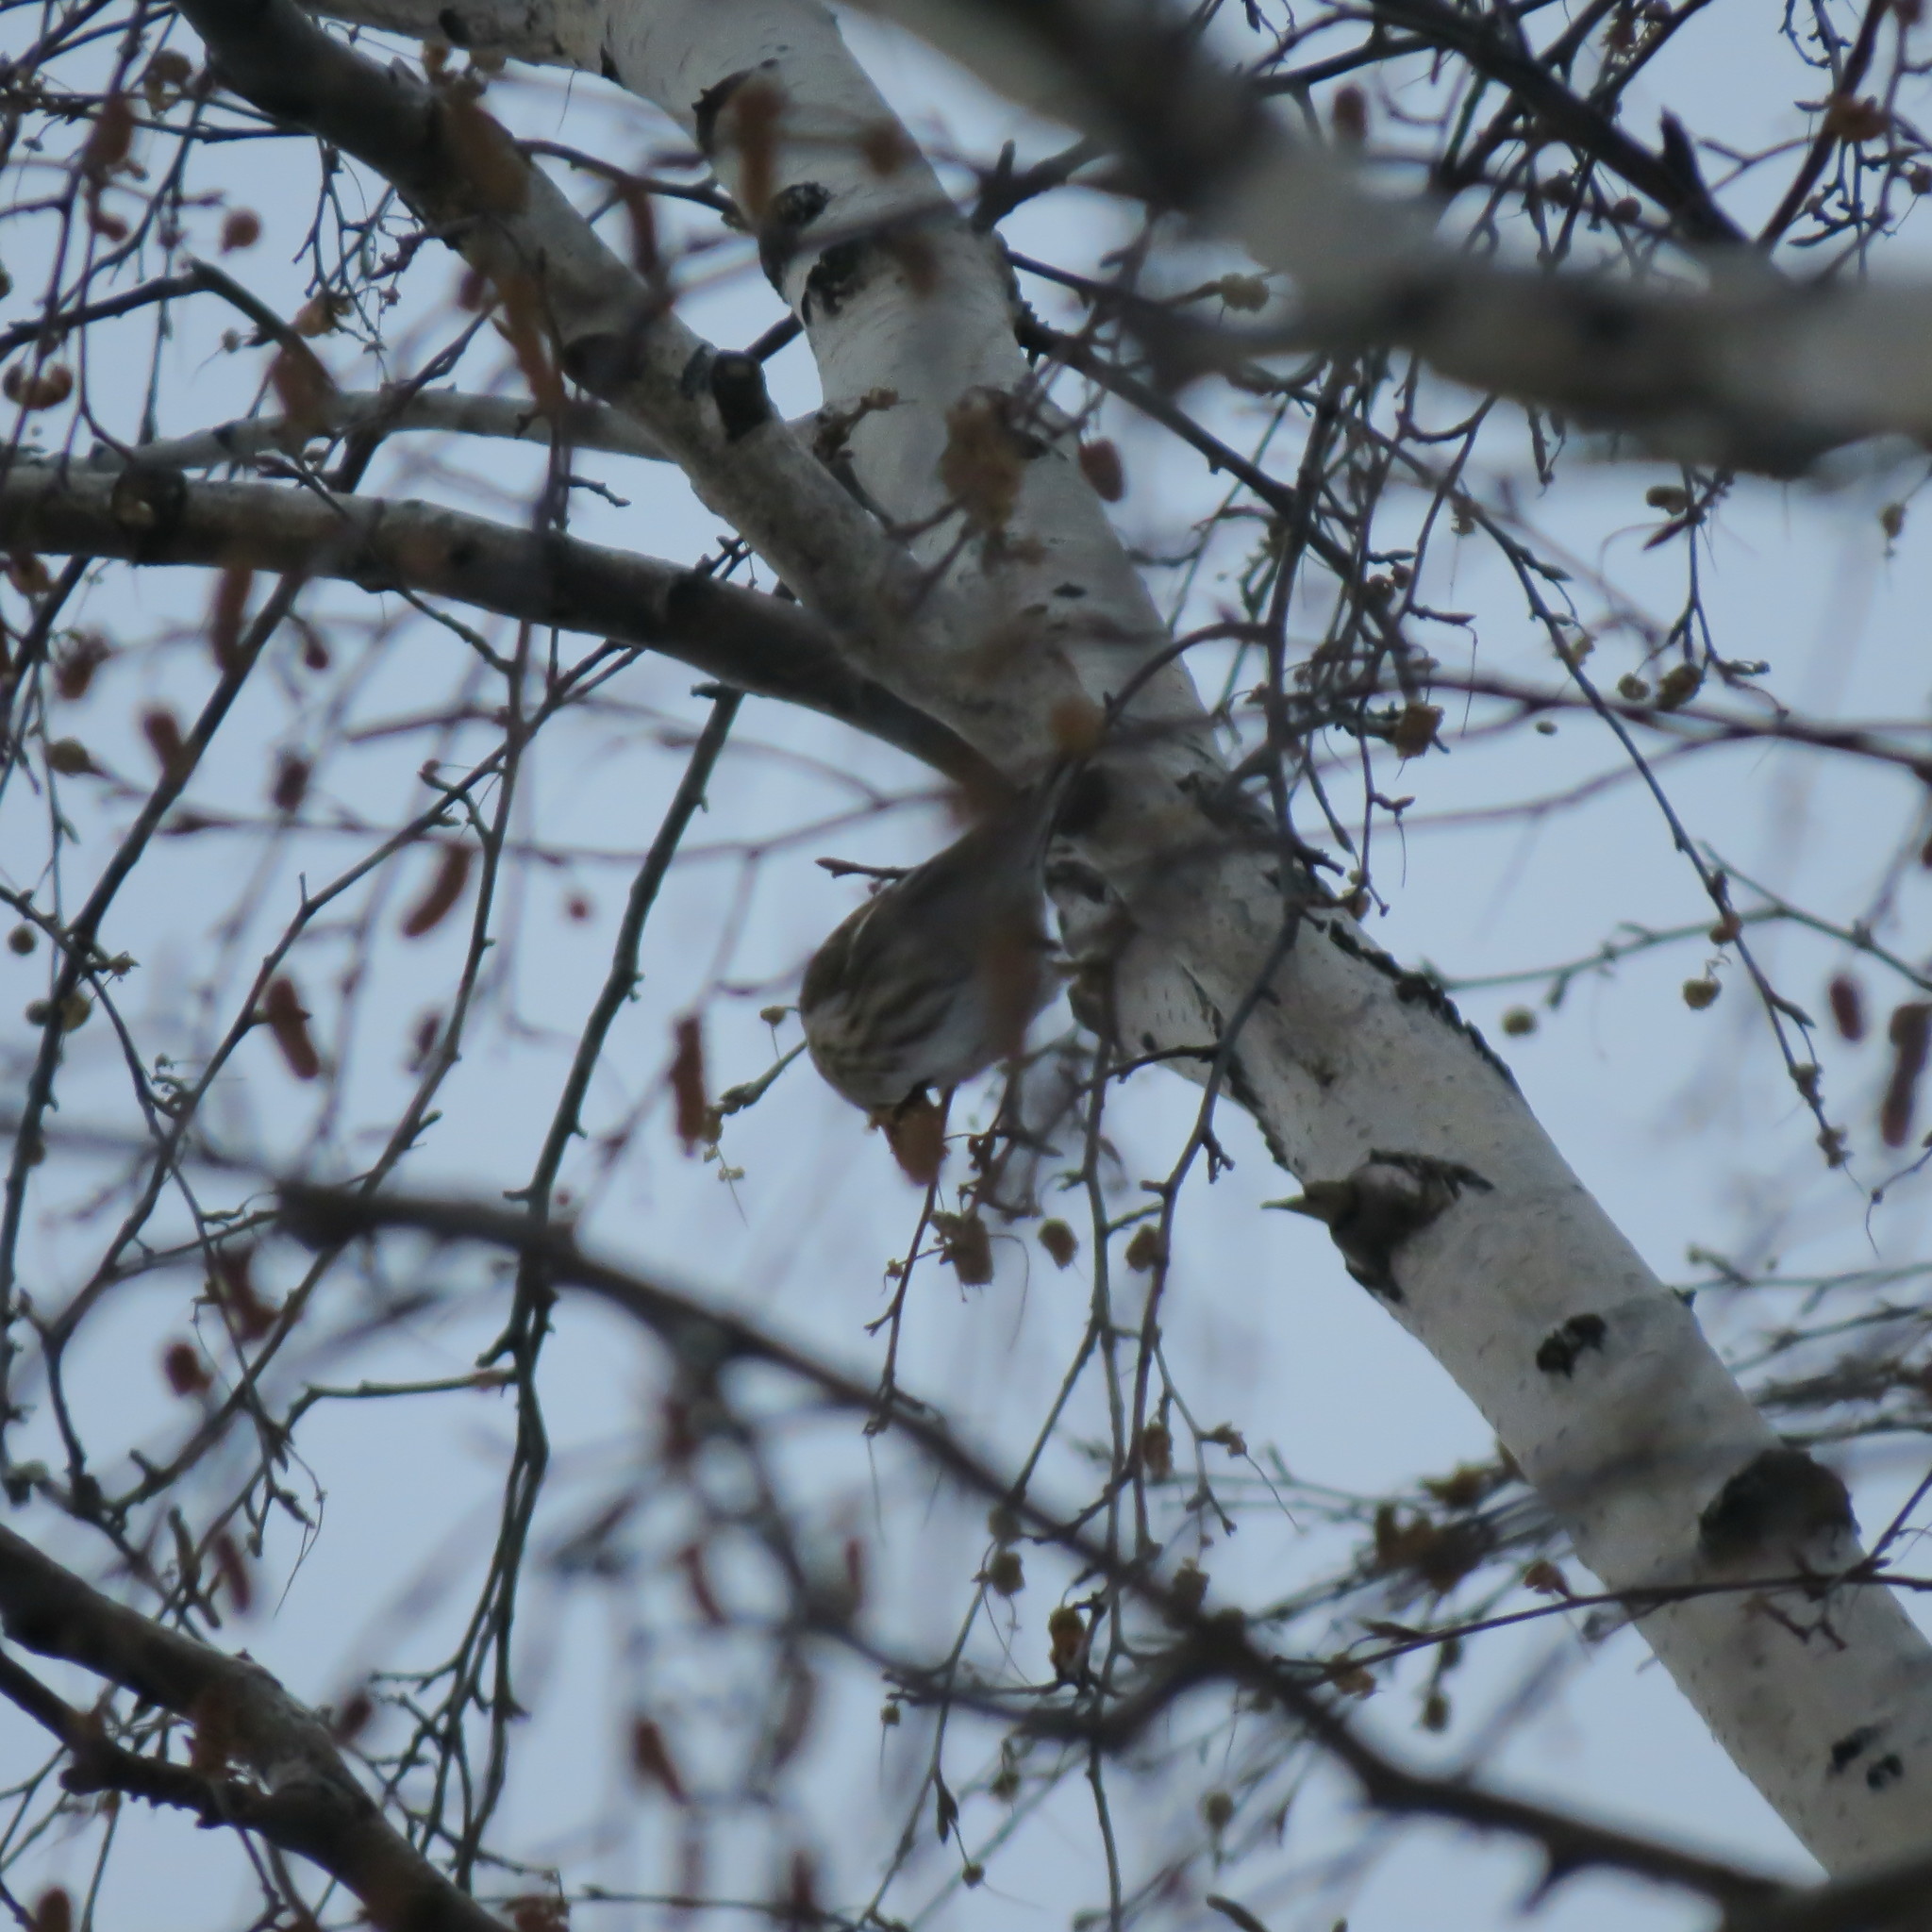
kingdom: Animalia
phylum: Chordata
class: Aves
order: Passeriformes
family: Fringillidae
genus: Spinus
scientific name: Spinus spinus
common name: Eurasian siskin
